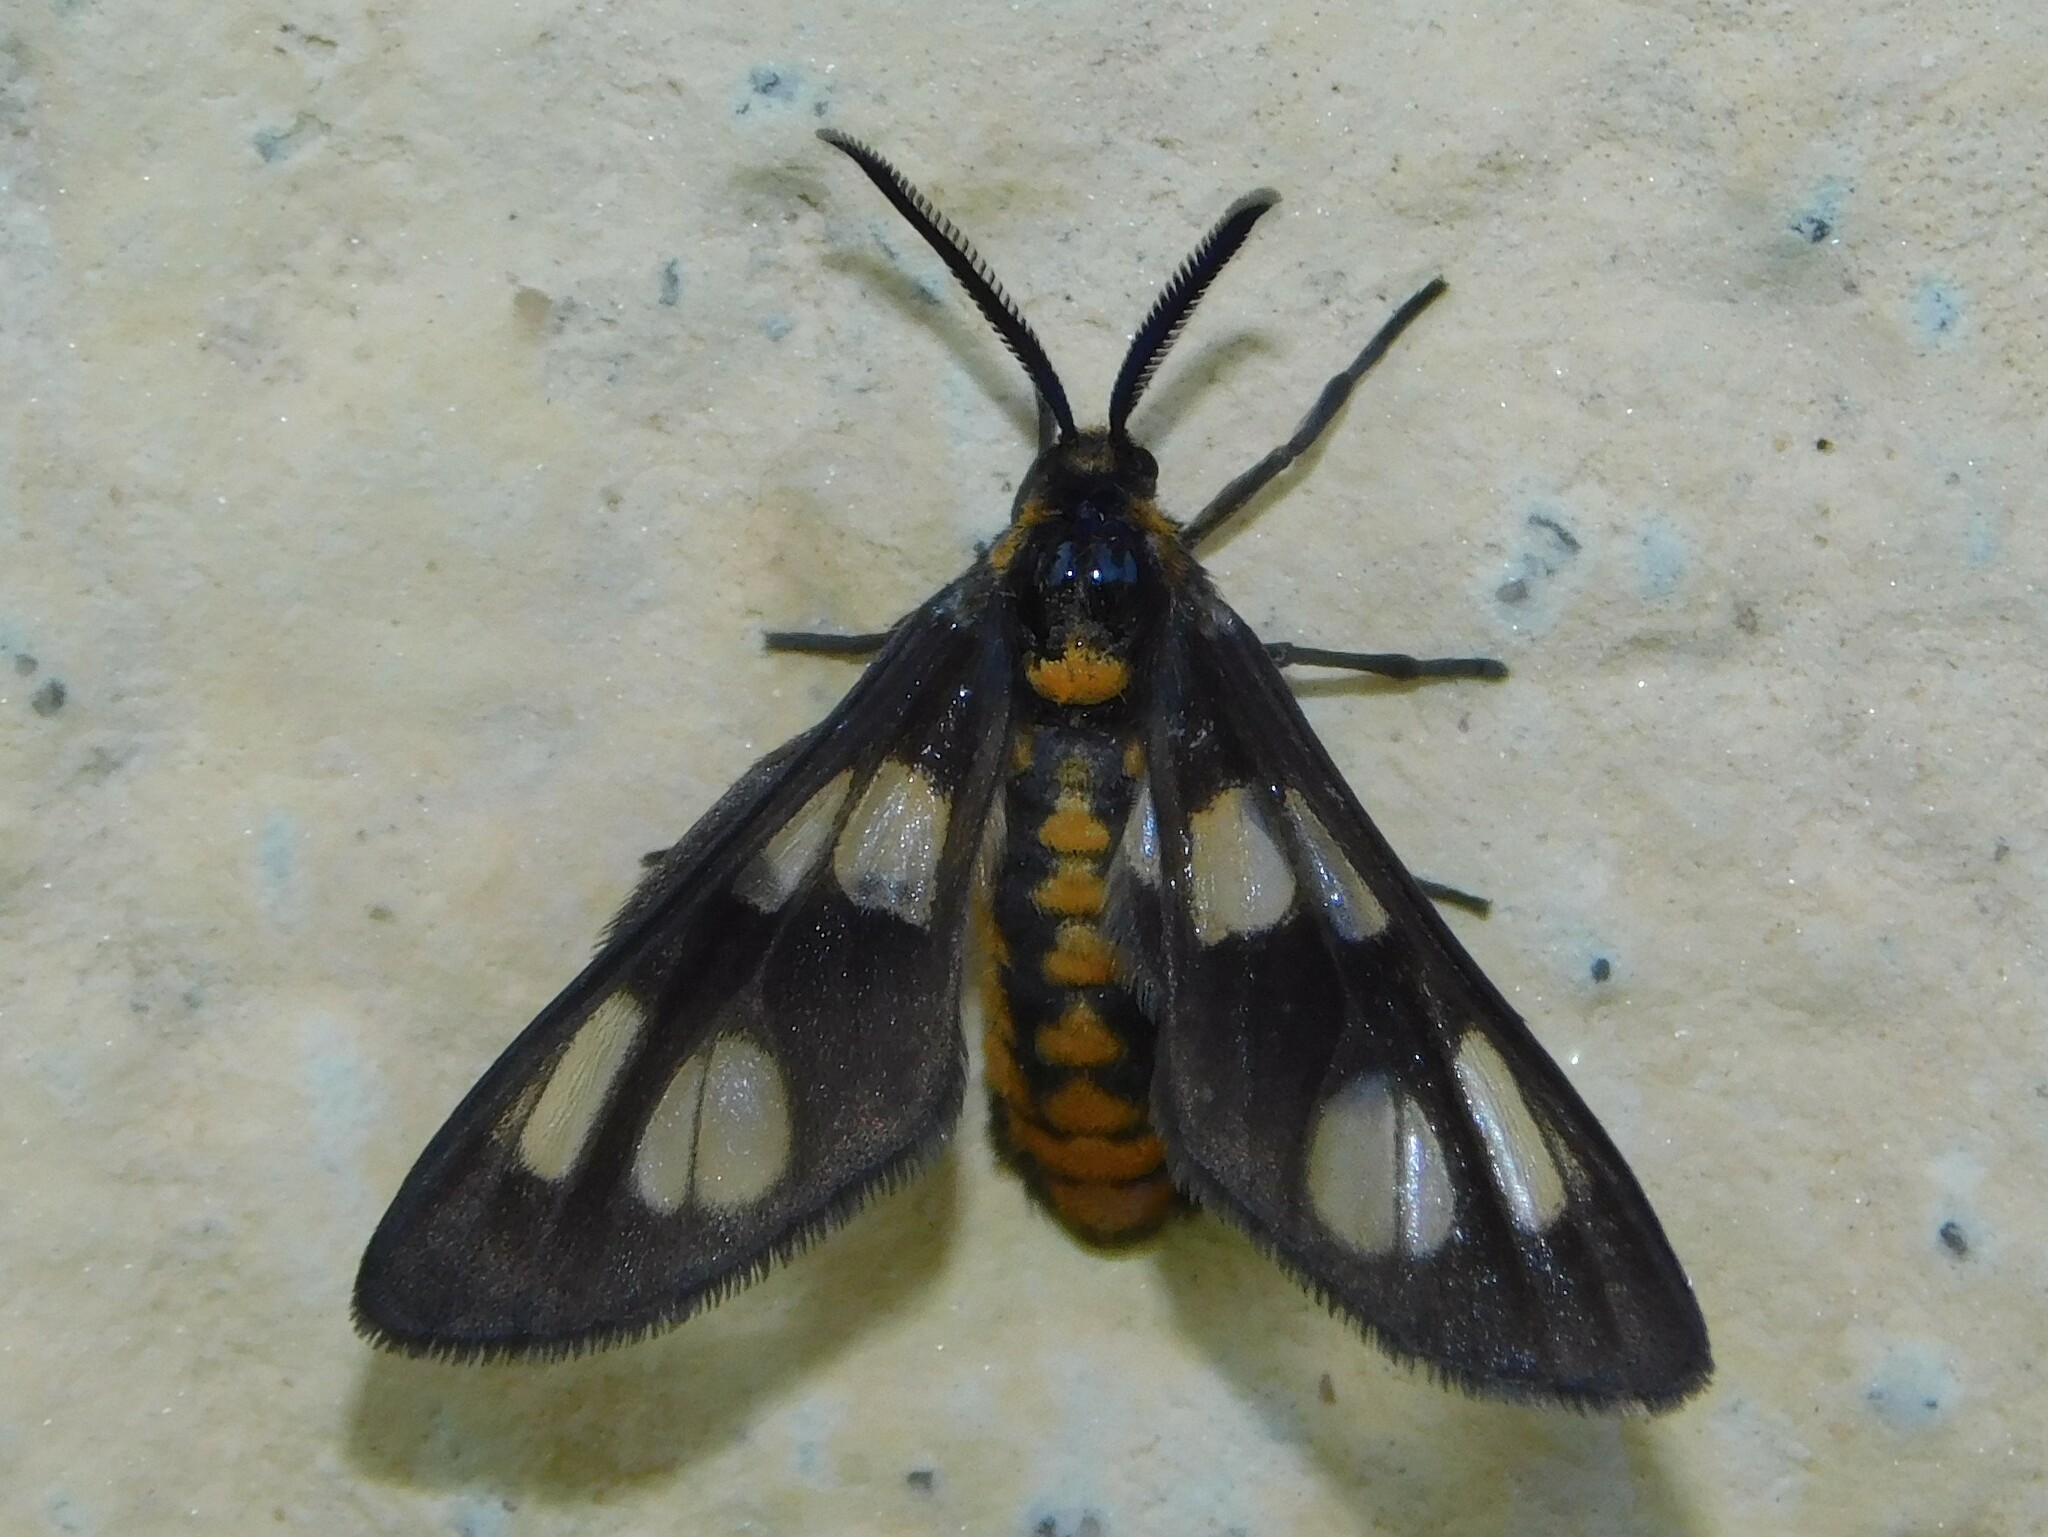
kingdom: Animalia
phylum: Arthropoda
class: Insecta
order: Lepidoptera
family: Erebidae
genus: Ceryx
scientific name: Ceryx fulvescens
